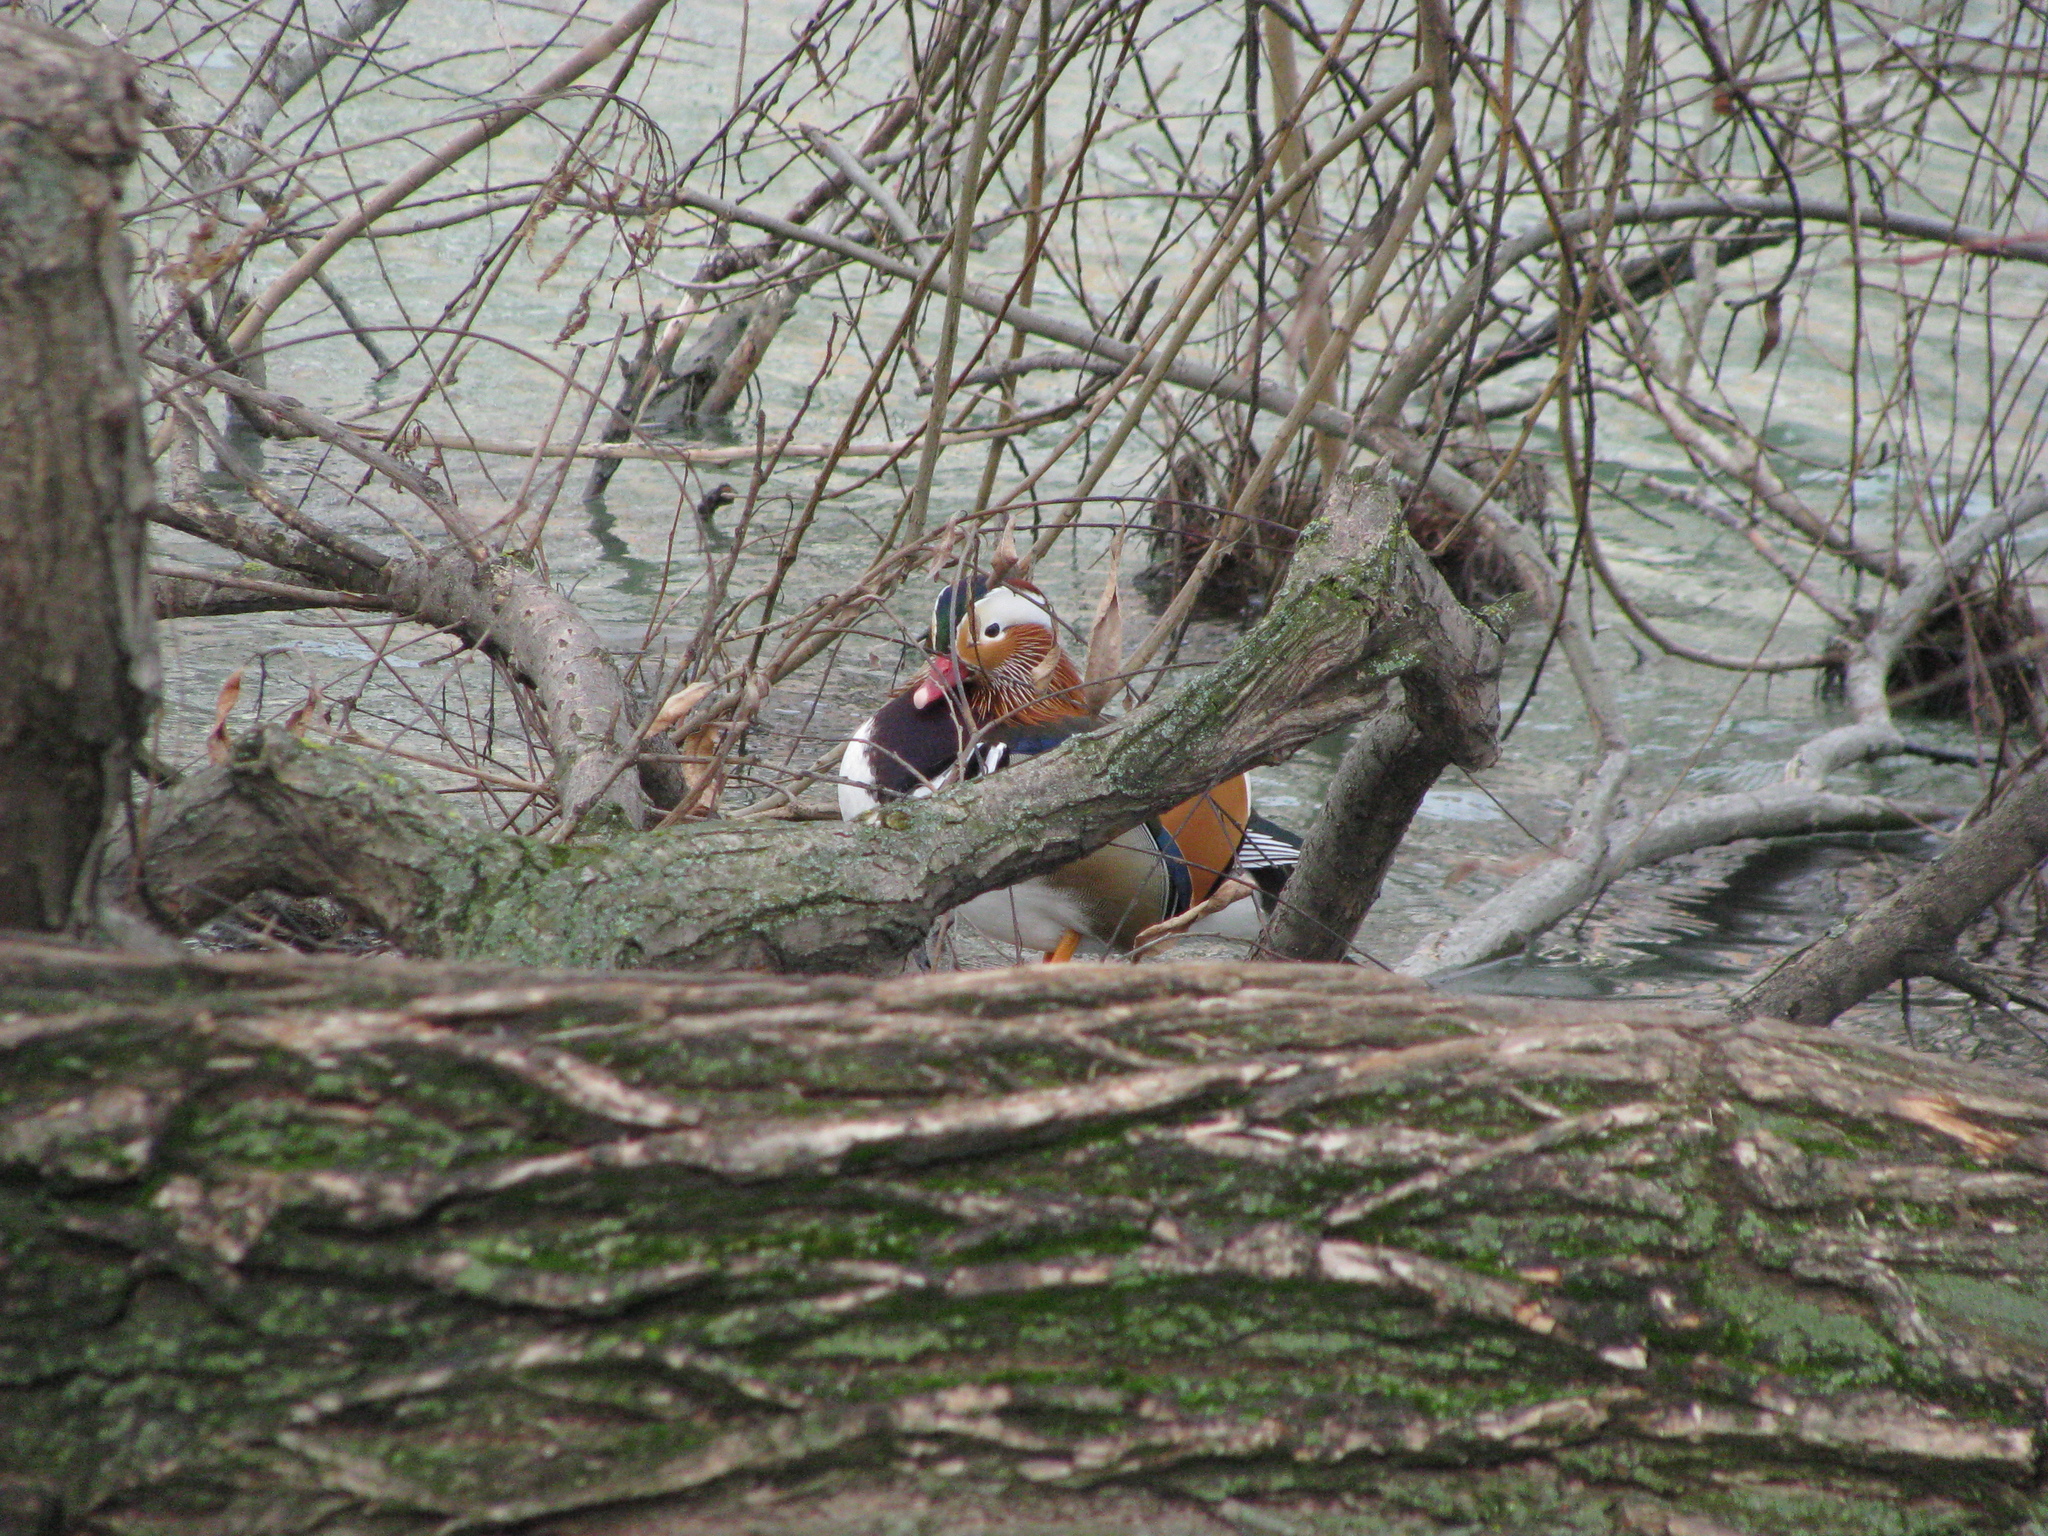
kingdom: Animalia
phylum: Chordata
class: Aves
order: Anseriformes
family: Anatidae
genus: Aix
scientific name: Aix galericulata
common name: Mandarin duck
